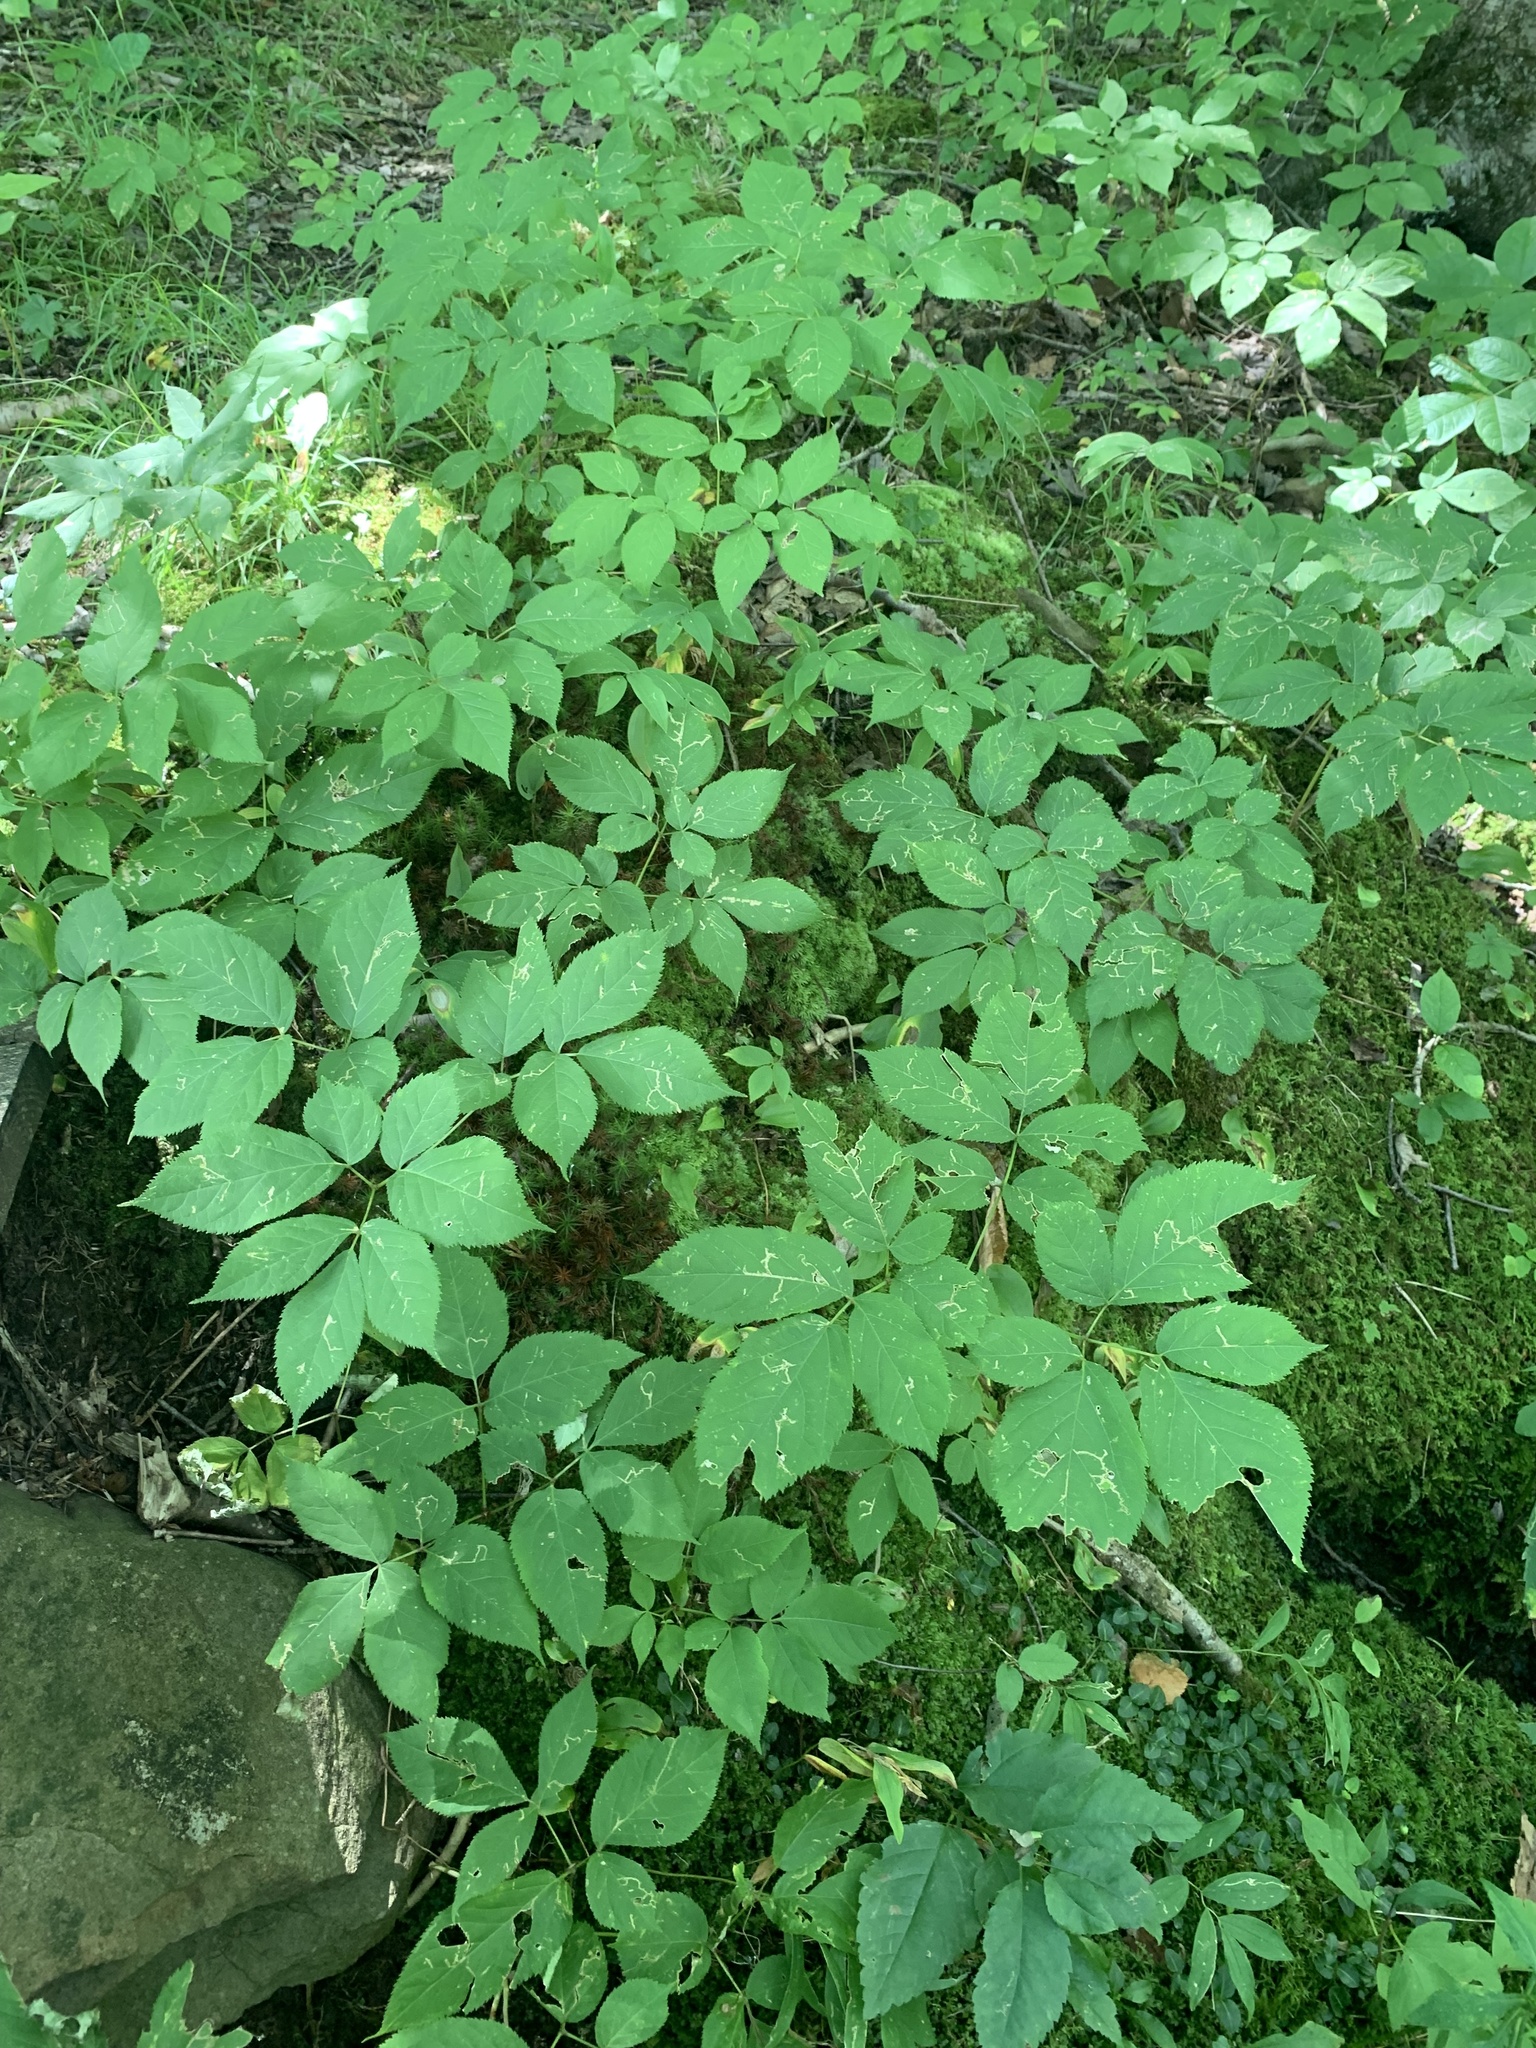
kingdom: Plantae
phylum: Tracheophyta
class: Magnoliopsida
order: Apiales
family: Araliaceae
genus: Aralia
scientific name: Aralia nudicaulis
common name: Wild sarsaparilla
